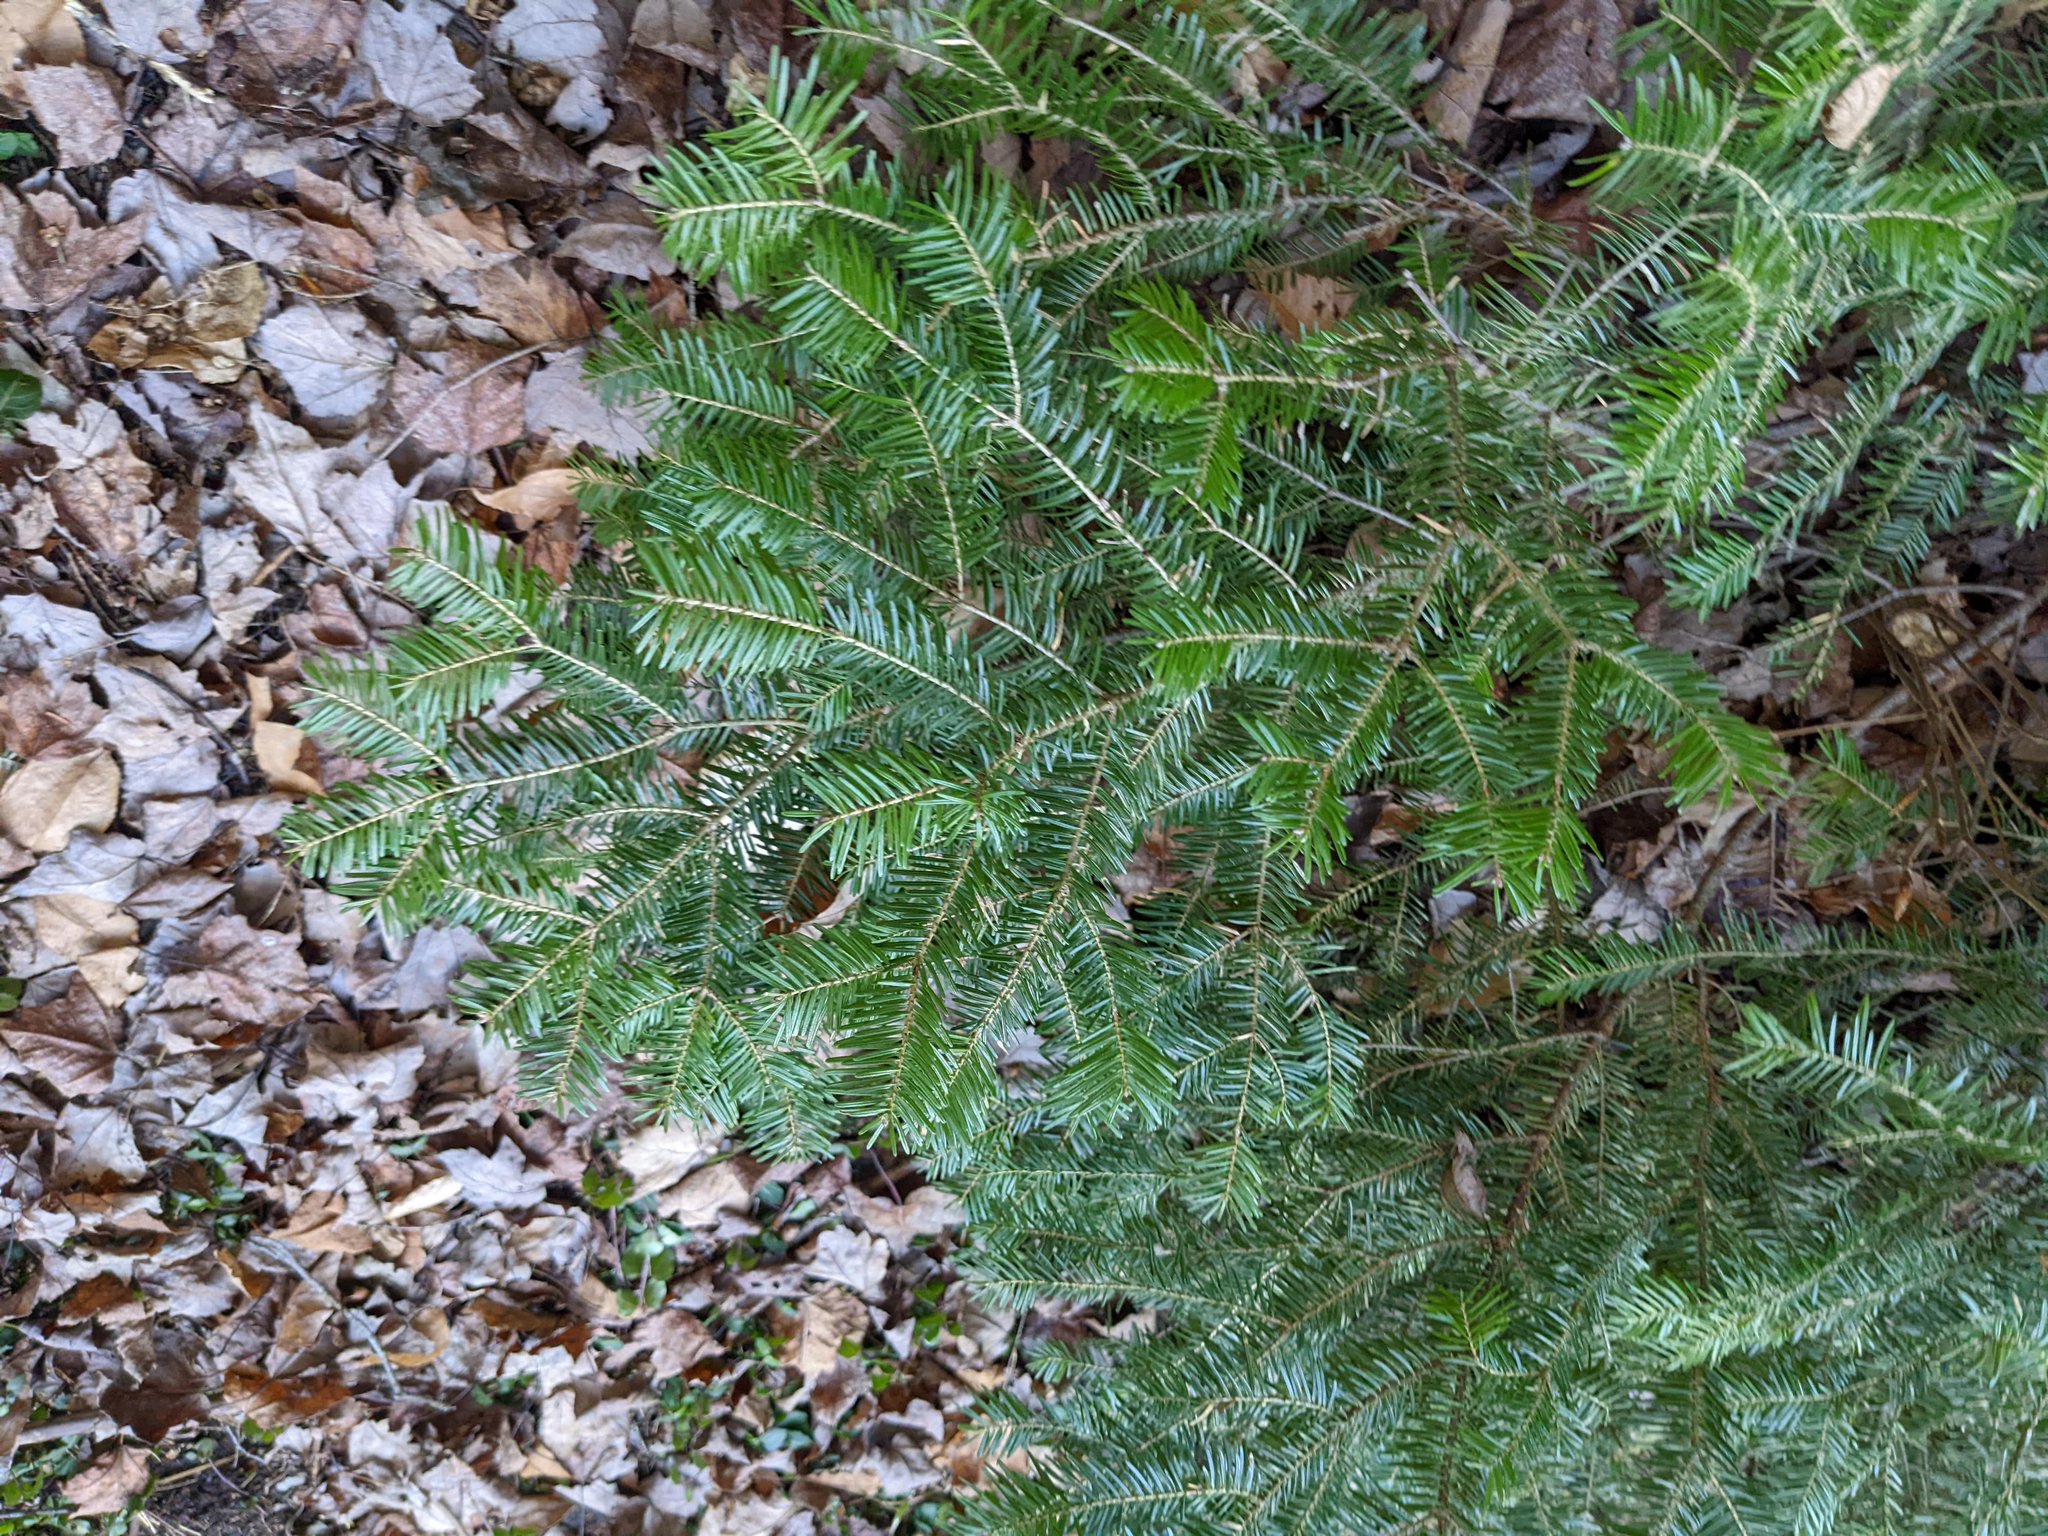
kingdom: Plantae
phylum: Tracheophyta
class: Pinopsida
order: Pinales
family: Pinaceae
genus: Abies
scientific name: Abies balsamea
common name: Balsam fir
